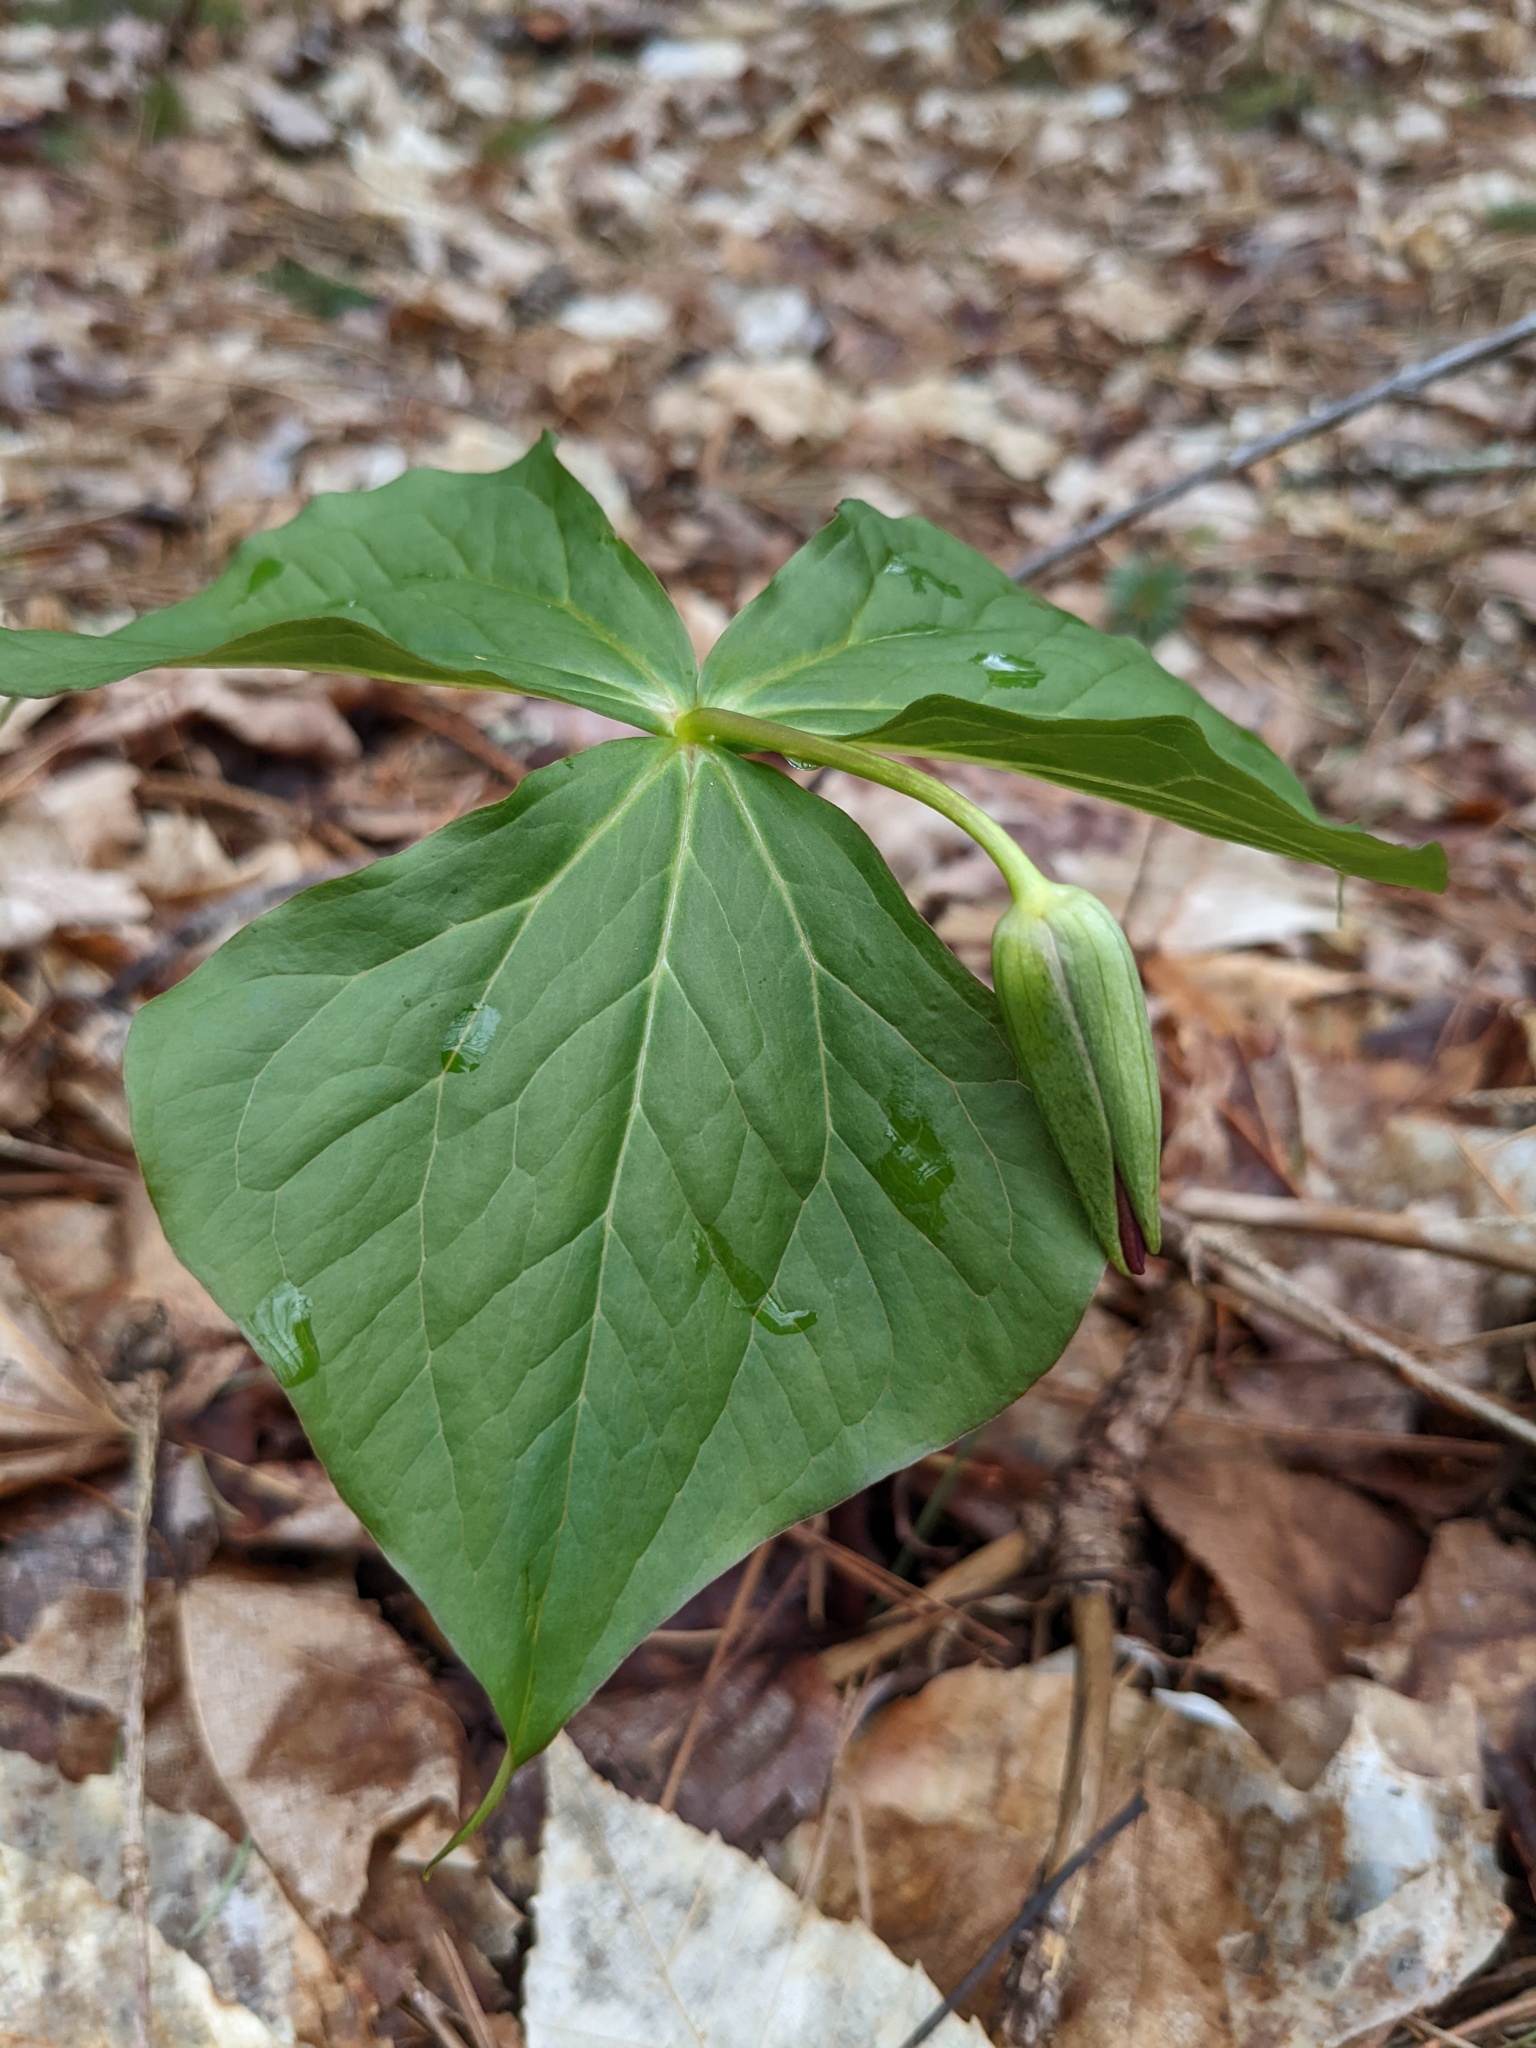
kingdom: Plantae
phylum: Tracheophyta
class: Liliopsida
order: Liliales
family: Melanthiaceae
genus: Trillium
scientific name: Trillium erectum
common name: Purple trillium
